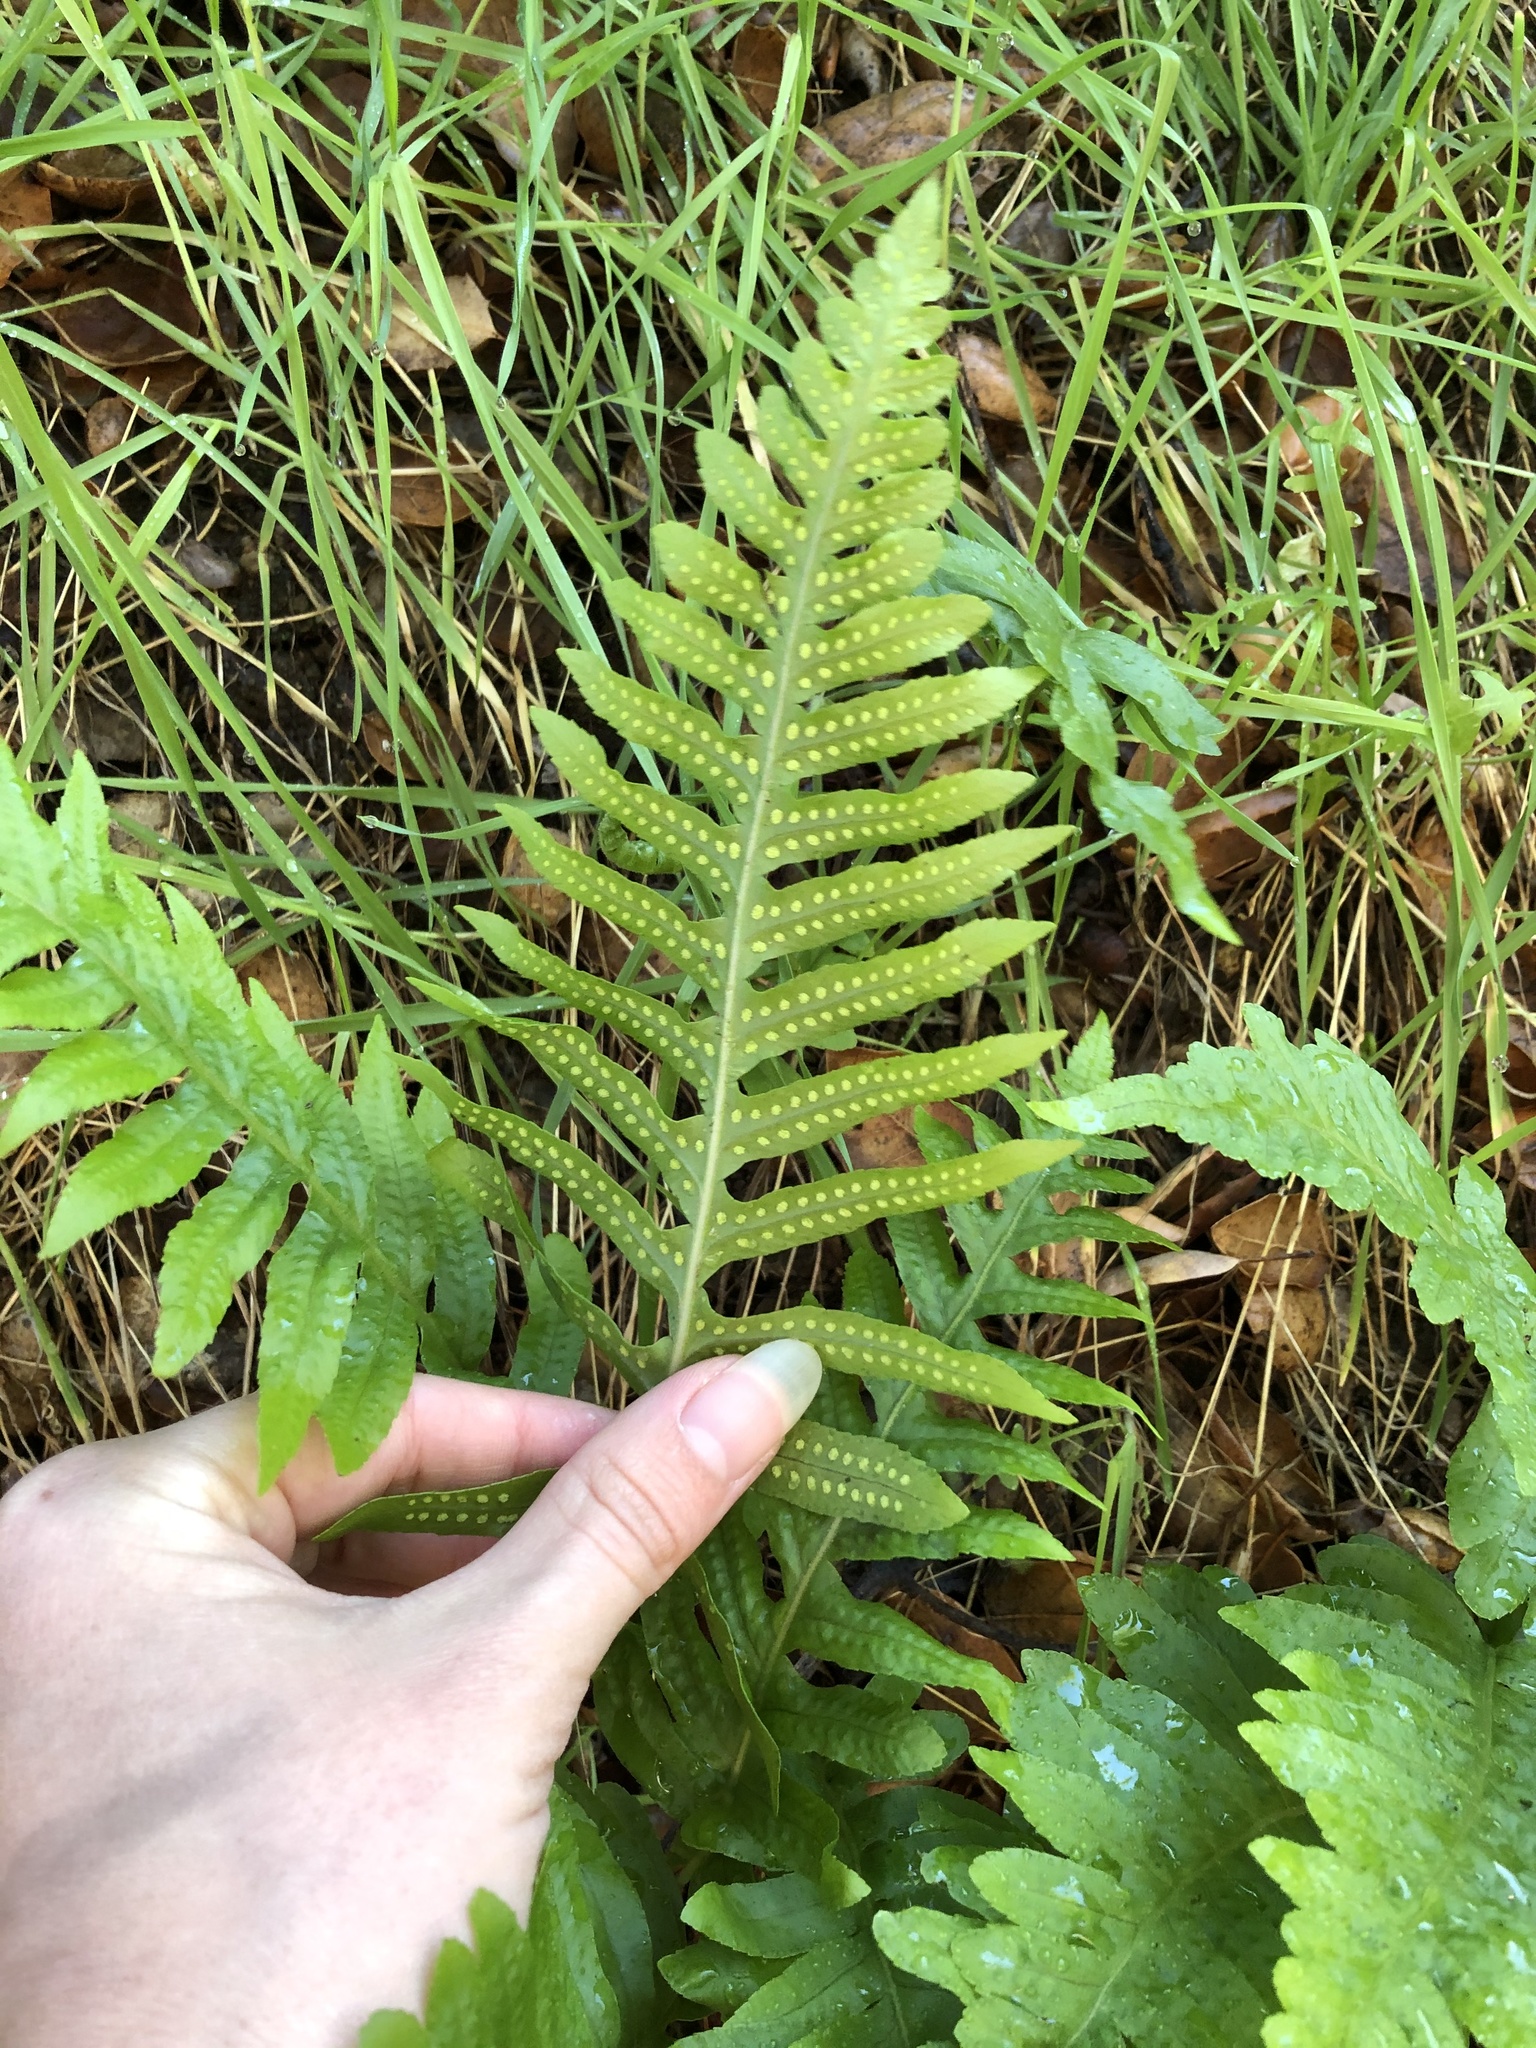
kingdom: Plantae
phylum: Tracheophyta
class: Polypodiopsida
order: Polypodiales
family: Polypodiaceae
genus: Polypodium
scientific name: Polypodium californicum
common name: California polypody
